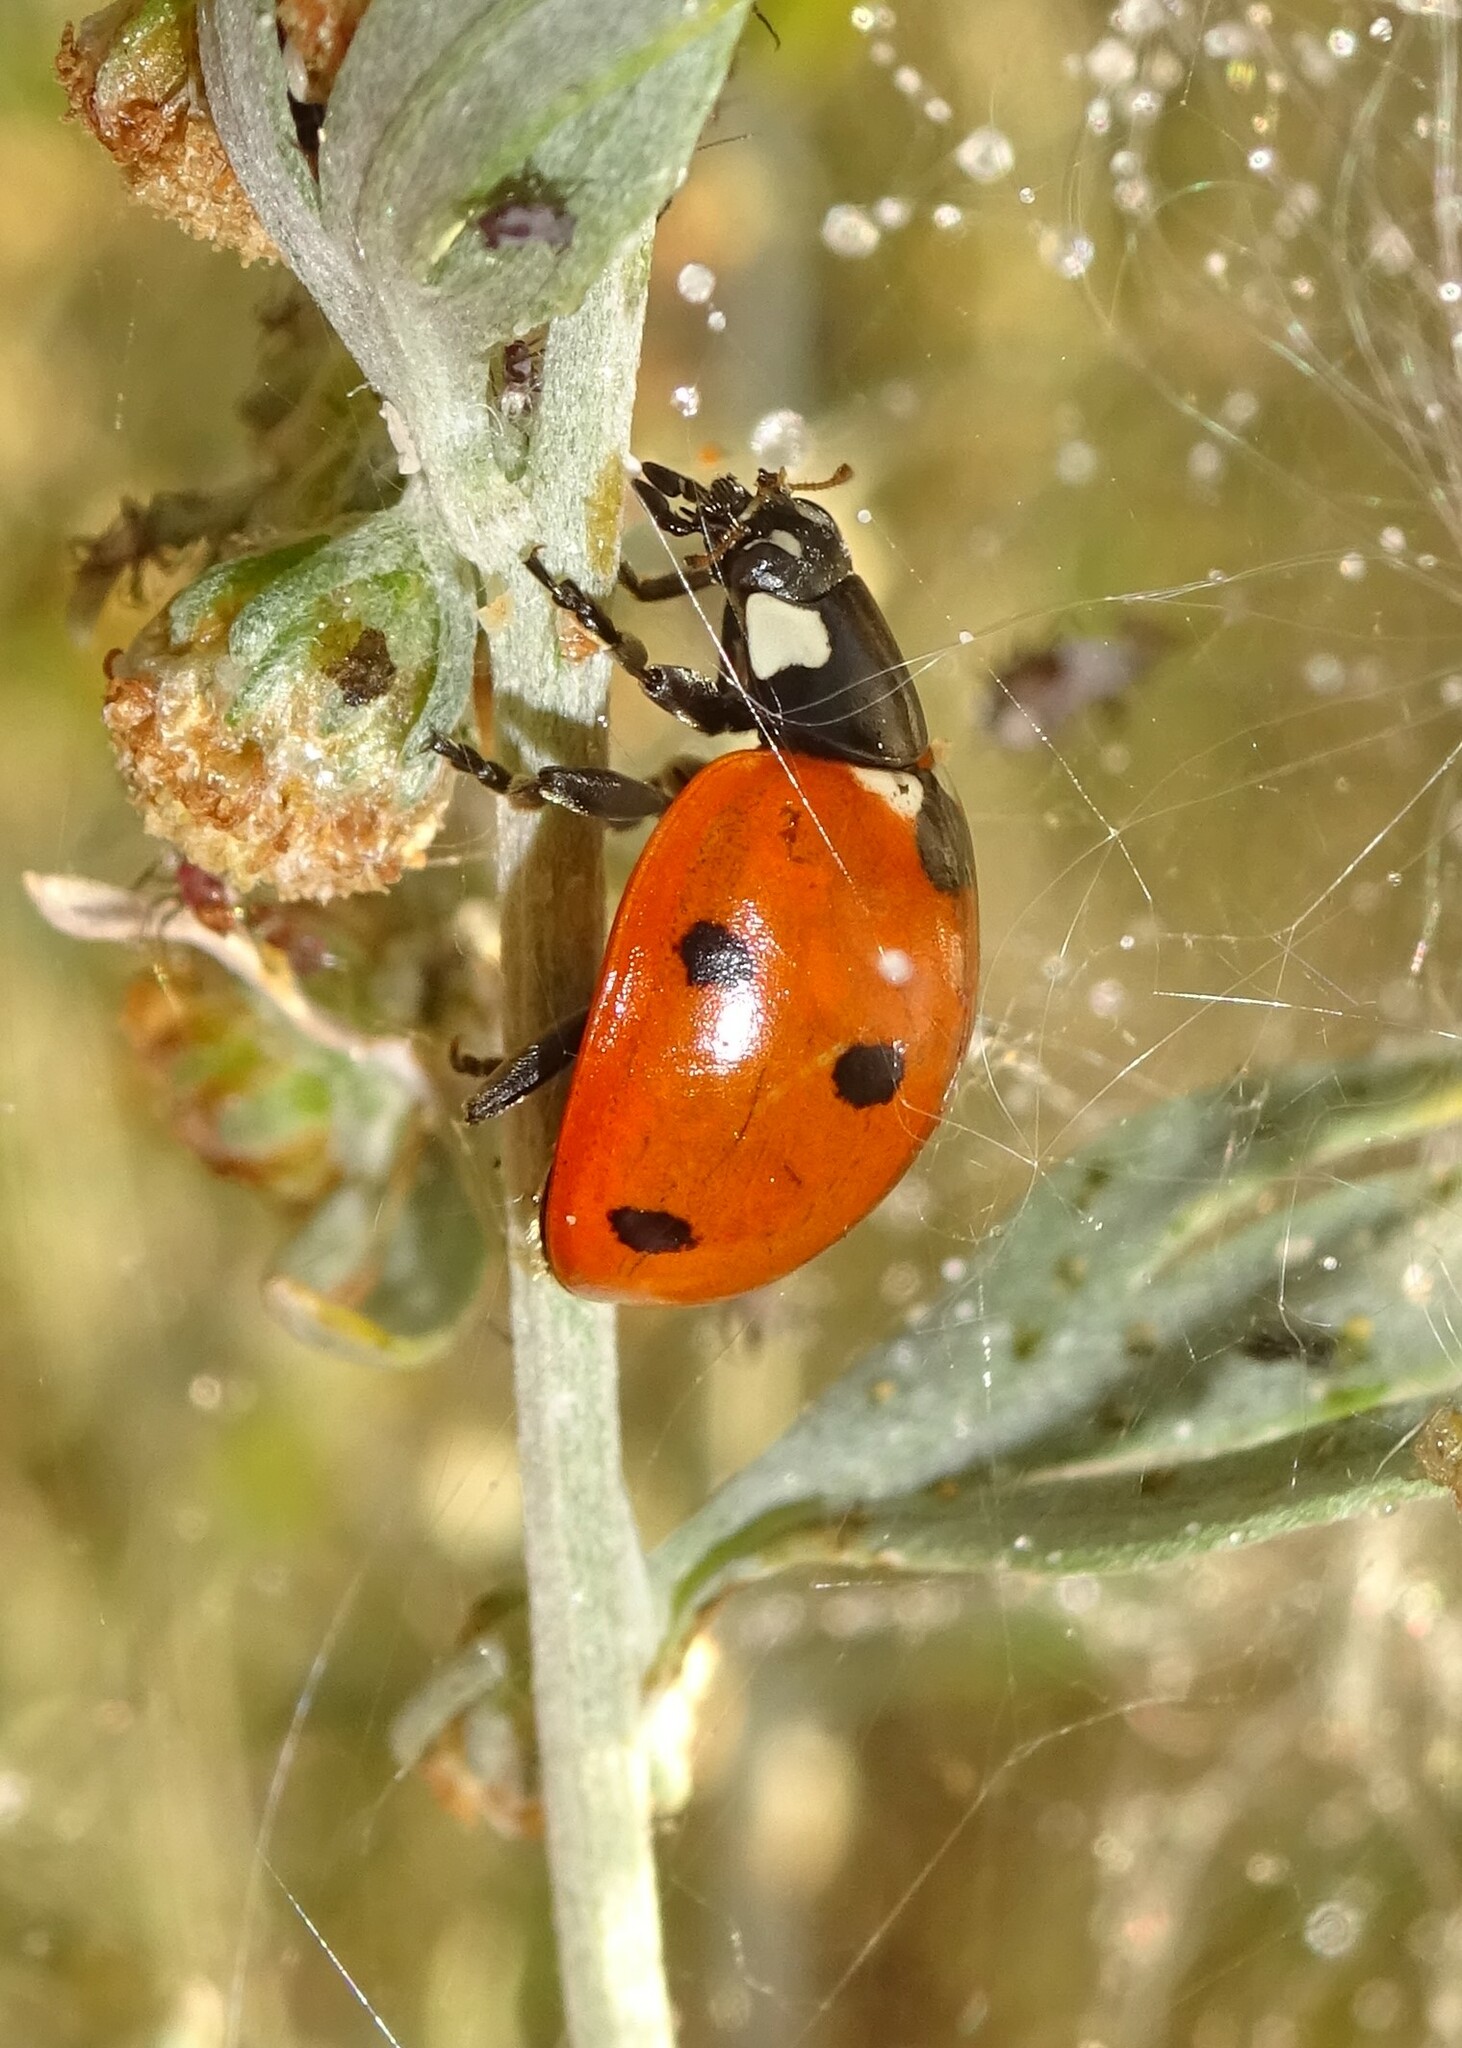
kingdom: Animalia
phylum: Arthropoda
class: Insecta
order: Coleoptera
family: Coccinellidae
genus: Coccinella
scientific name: Coccinella septempunctata
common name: Sevenspotted lady beetle
